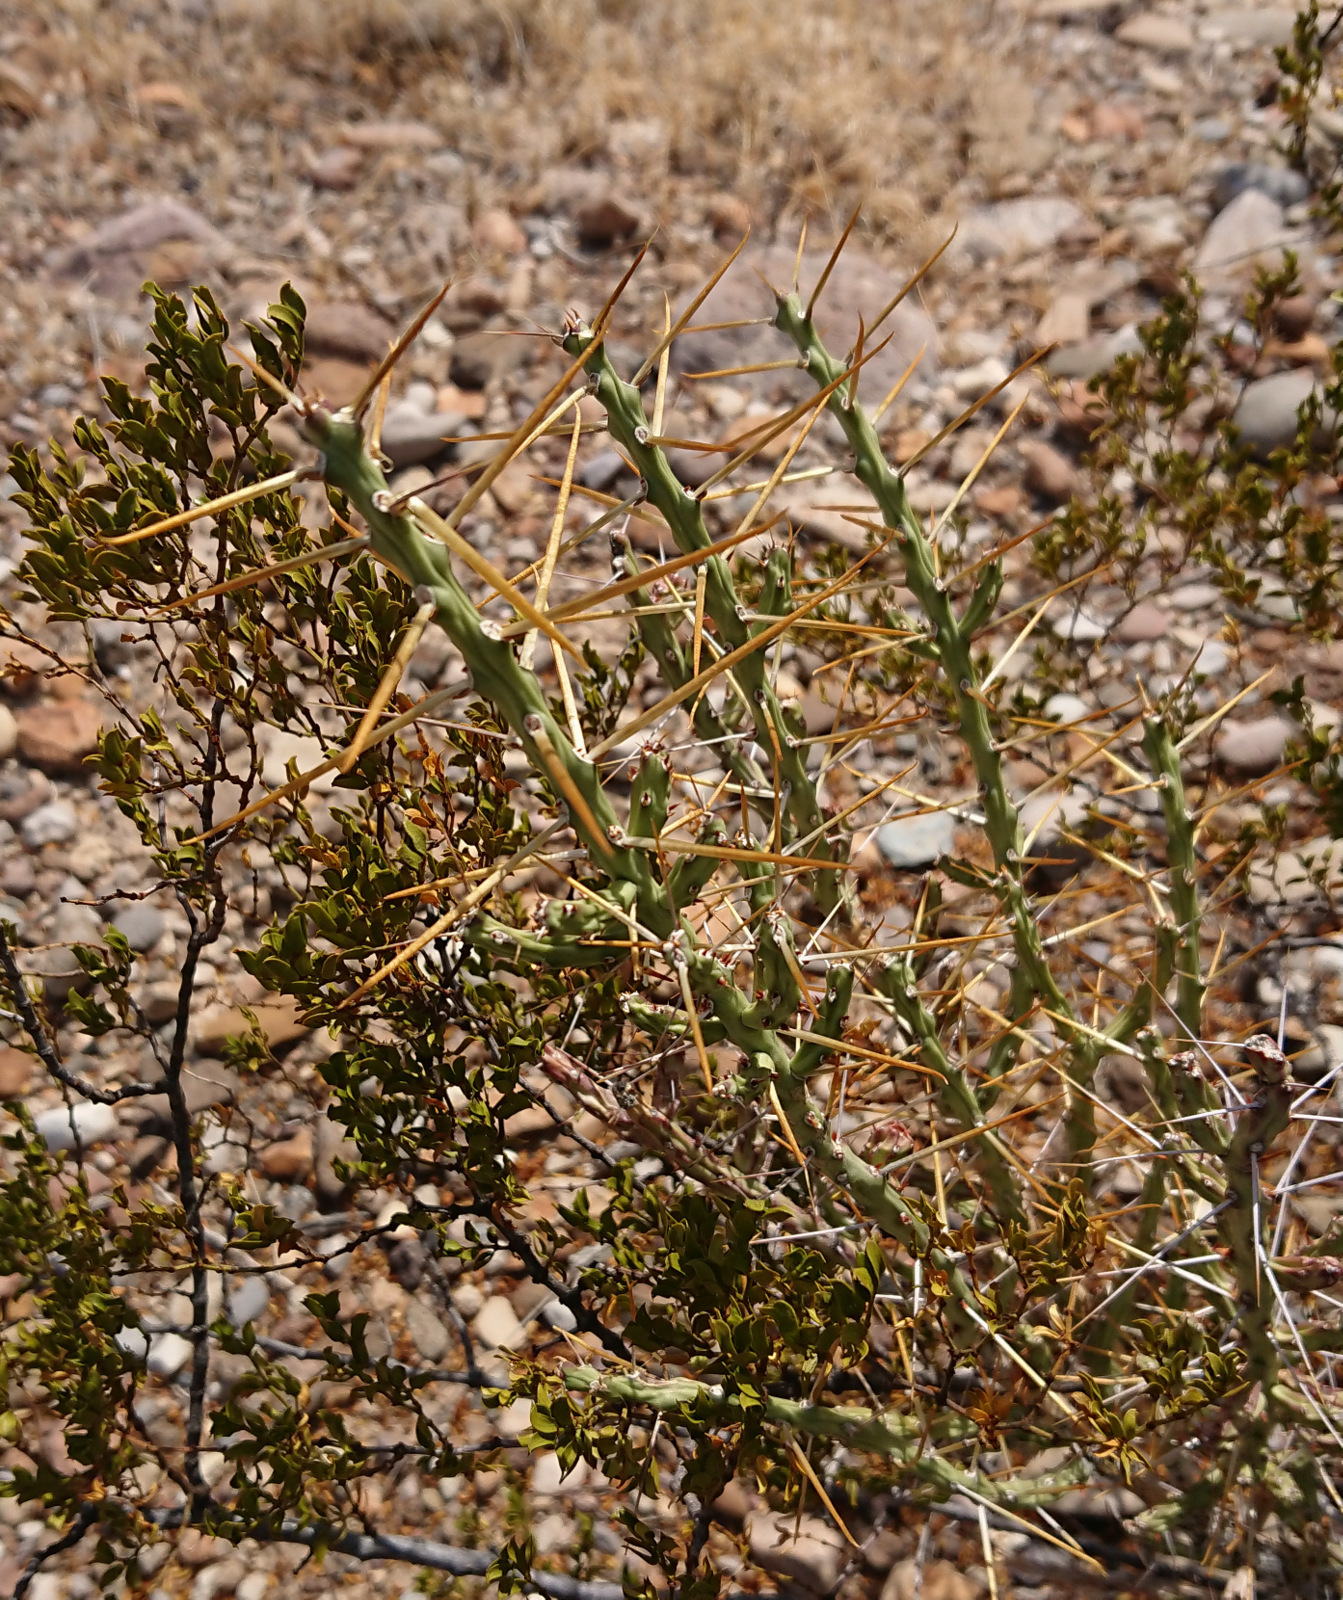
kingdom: Plantae
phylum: Tracheophyta
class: Magnoliopsida
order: Caryophyllales
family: Cactaceae
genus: Cylindropuntia
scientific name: Cylindropuntia leptocaulis
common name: Christmas cactus
